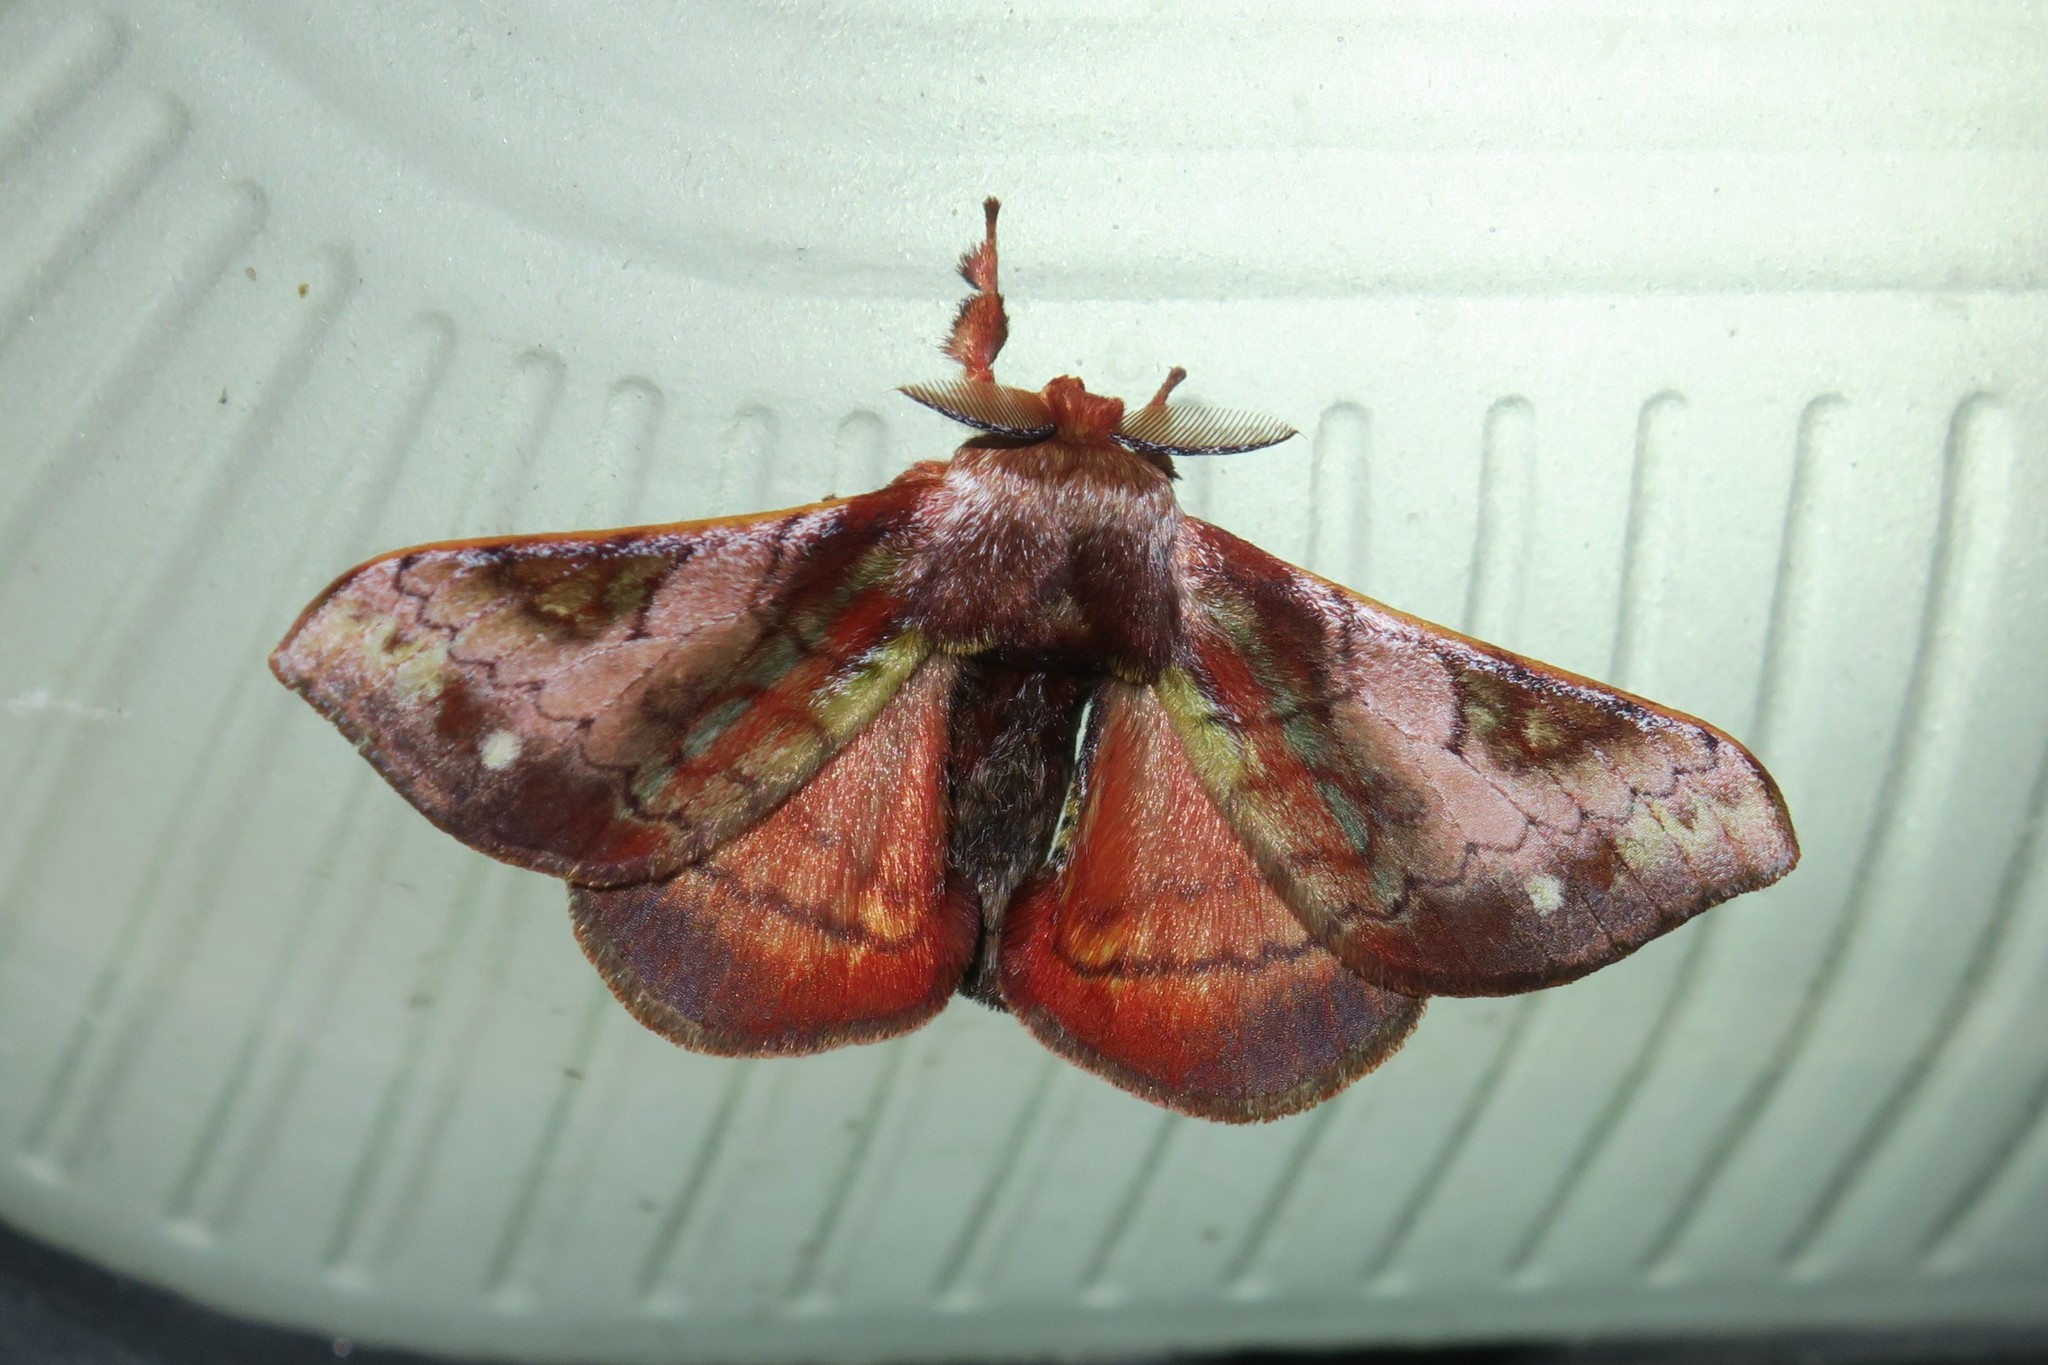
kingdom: Animalia
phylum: Arthropoda
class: Insecta
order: Lepidoptera
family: Bombycidae
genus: Epia
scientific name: Epia vulnerata
